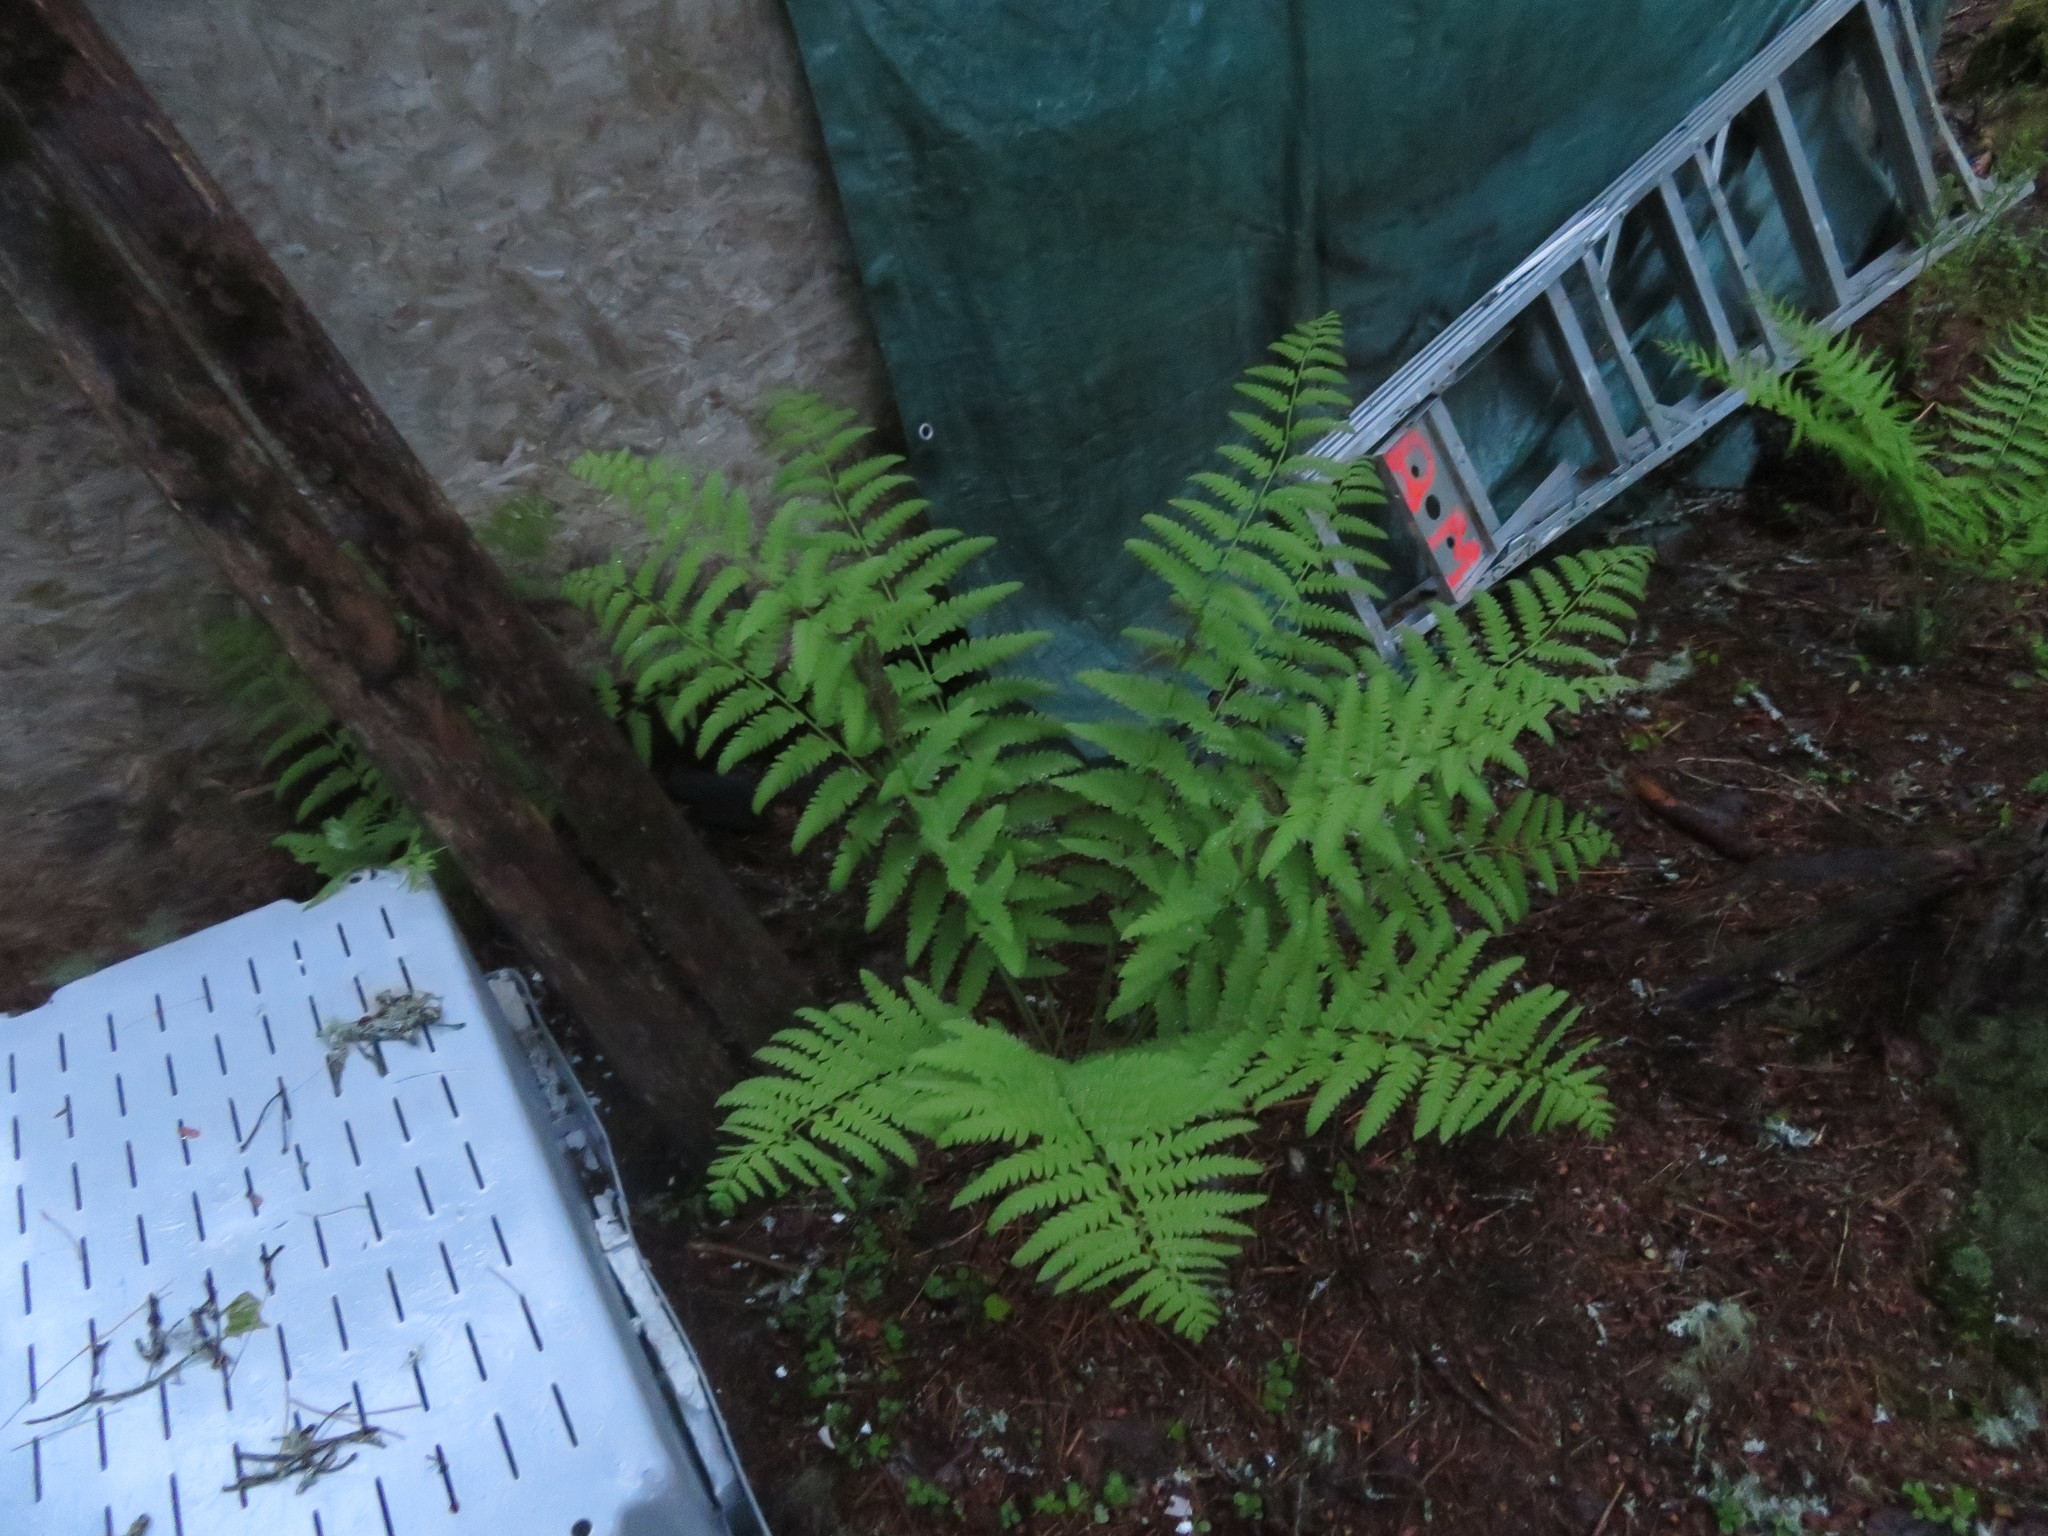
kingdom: Plantae
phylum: Tracheophyta
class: Polypodiopsida
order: Osmundales
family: Osmundaceae
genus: Osmundastrum
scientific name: Osmundastrum cinnamomeum
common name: Cinnamon fern
